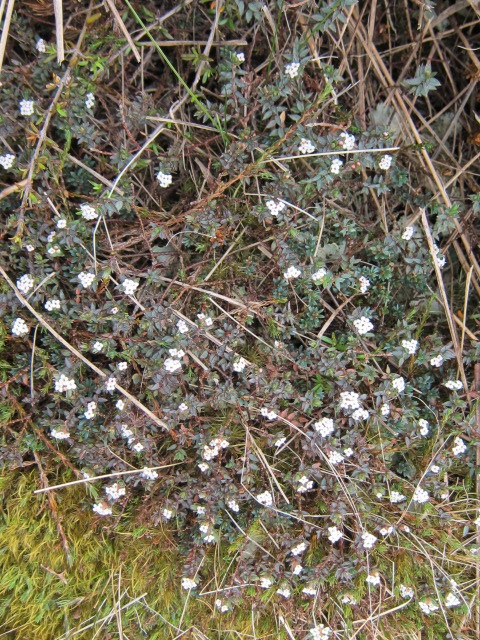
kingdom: Plantae
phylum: Tracheophyta
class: Magnoliopsida
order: Ericales
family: Ericaceae
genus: Androstoma
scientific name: Androstoma empetrifolia
